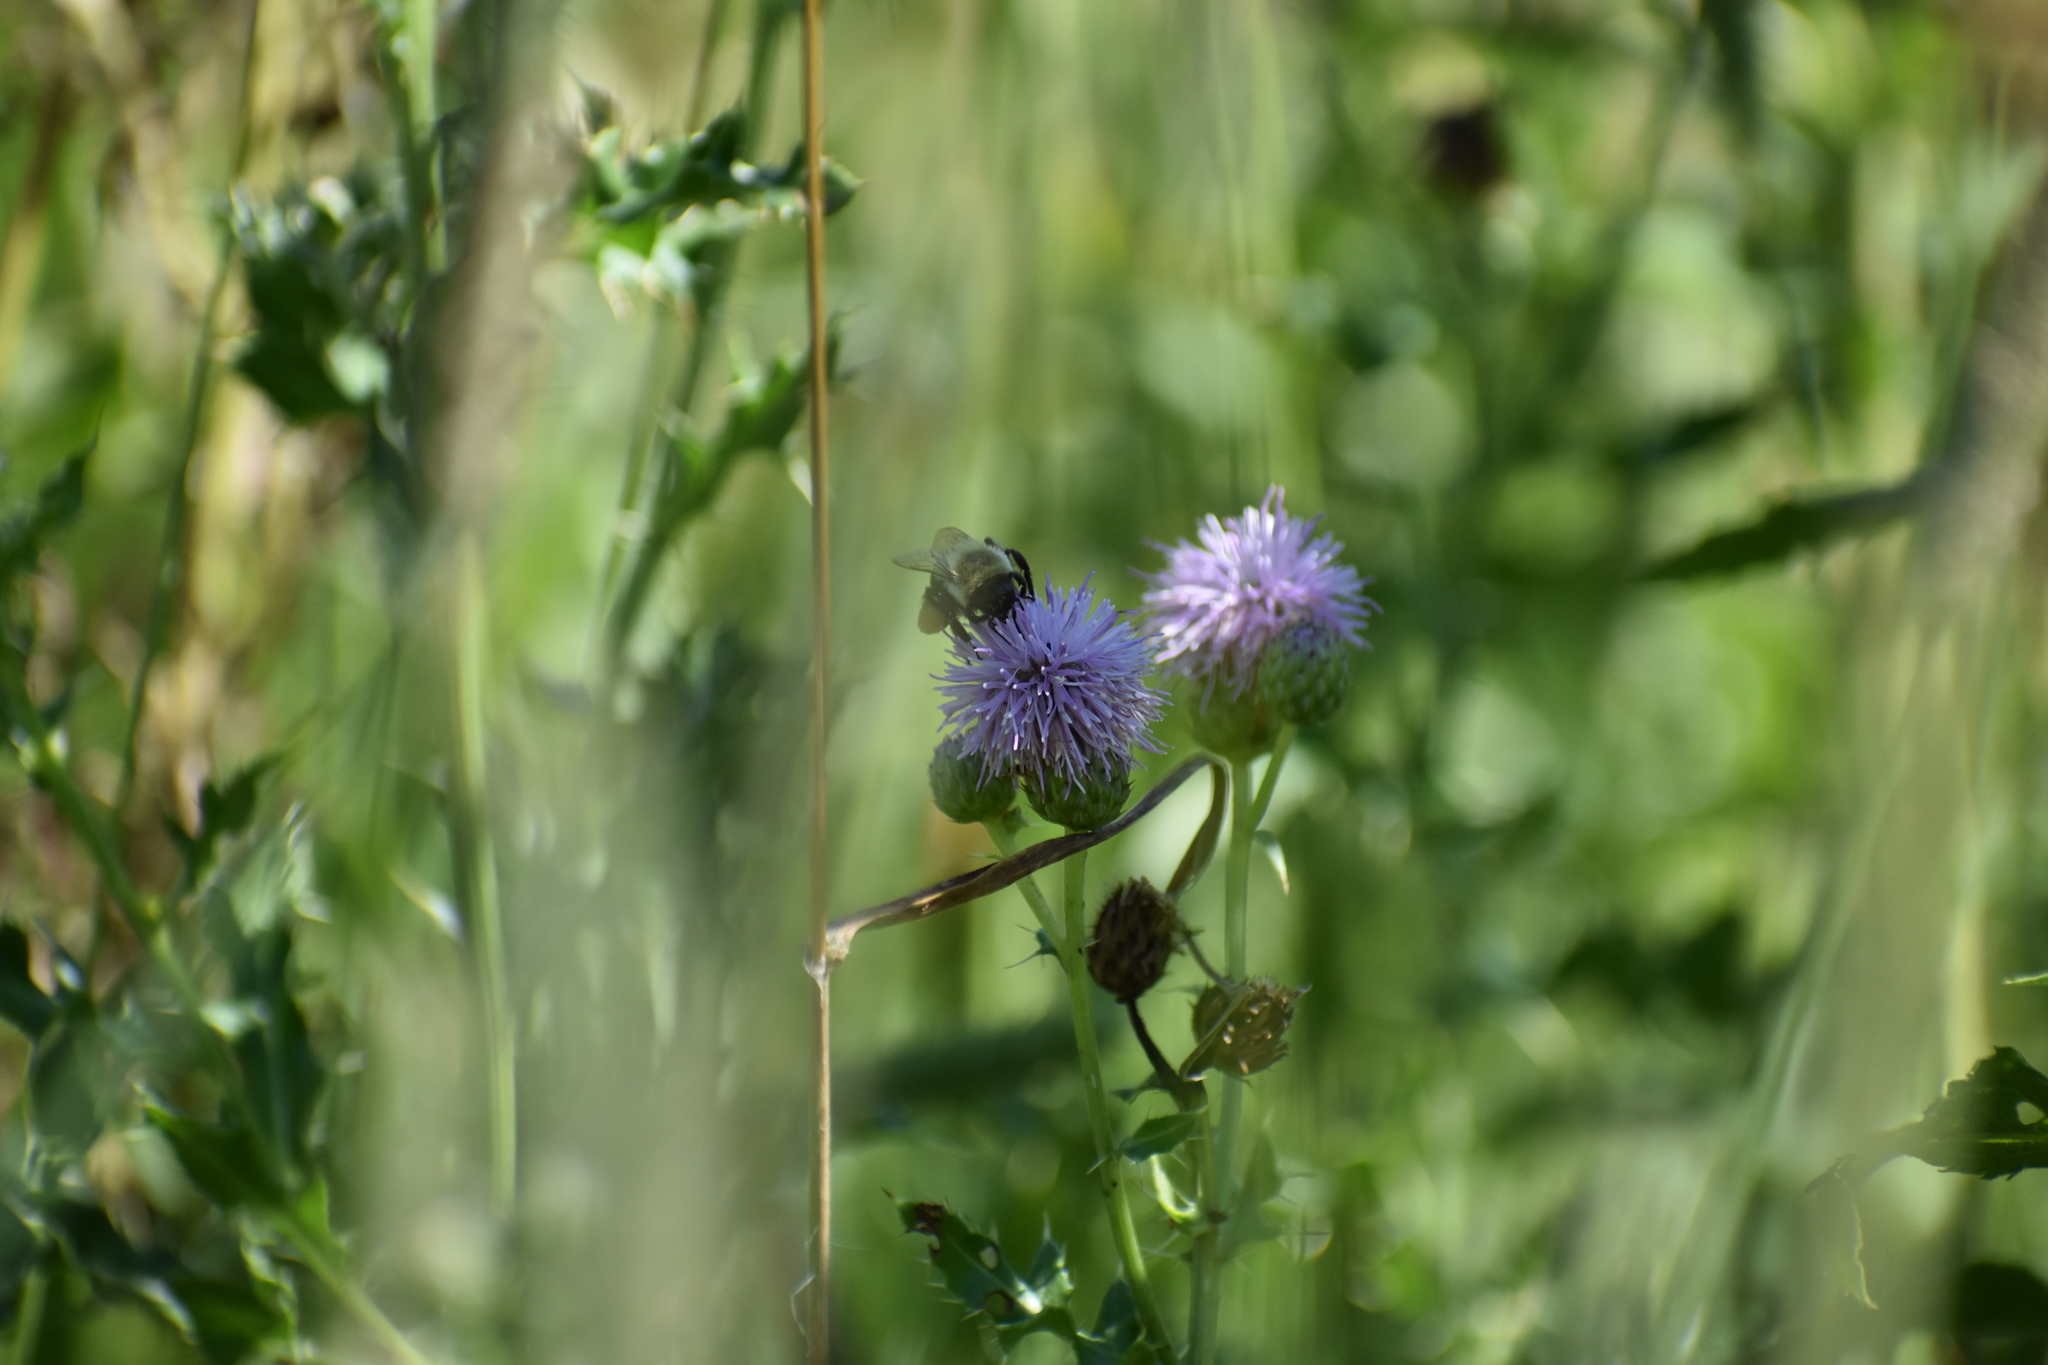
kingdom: Animalia
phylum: Arthropoda
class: Insecta
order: Hymenoptera
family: Apidae
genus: Bombus
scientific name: Bombus impatiens
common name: Common eastern bumble bee
